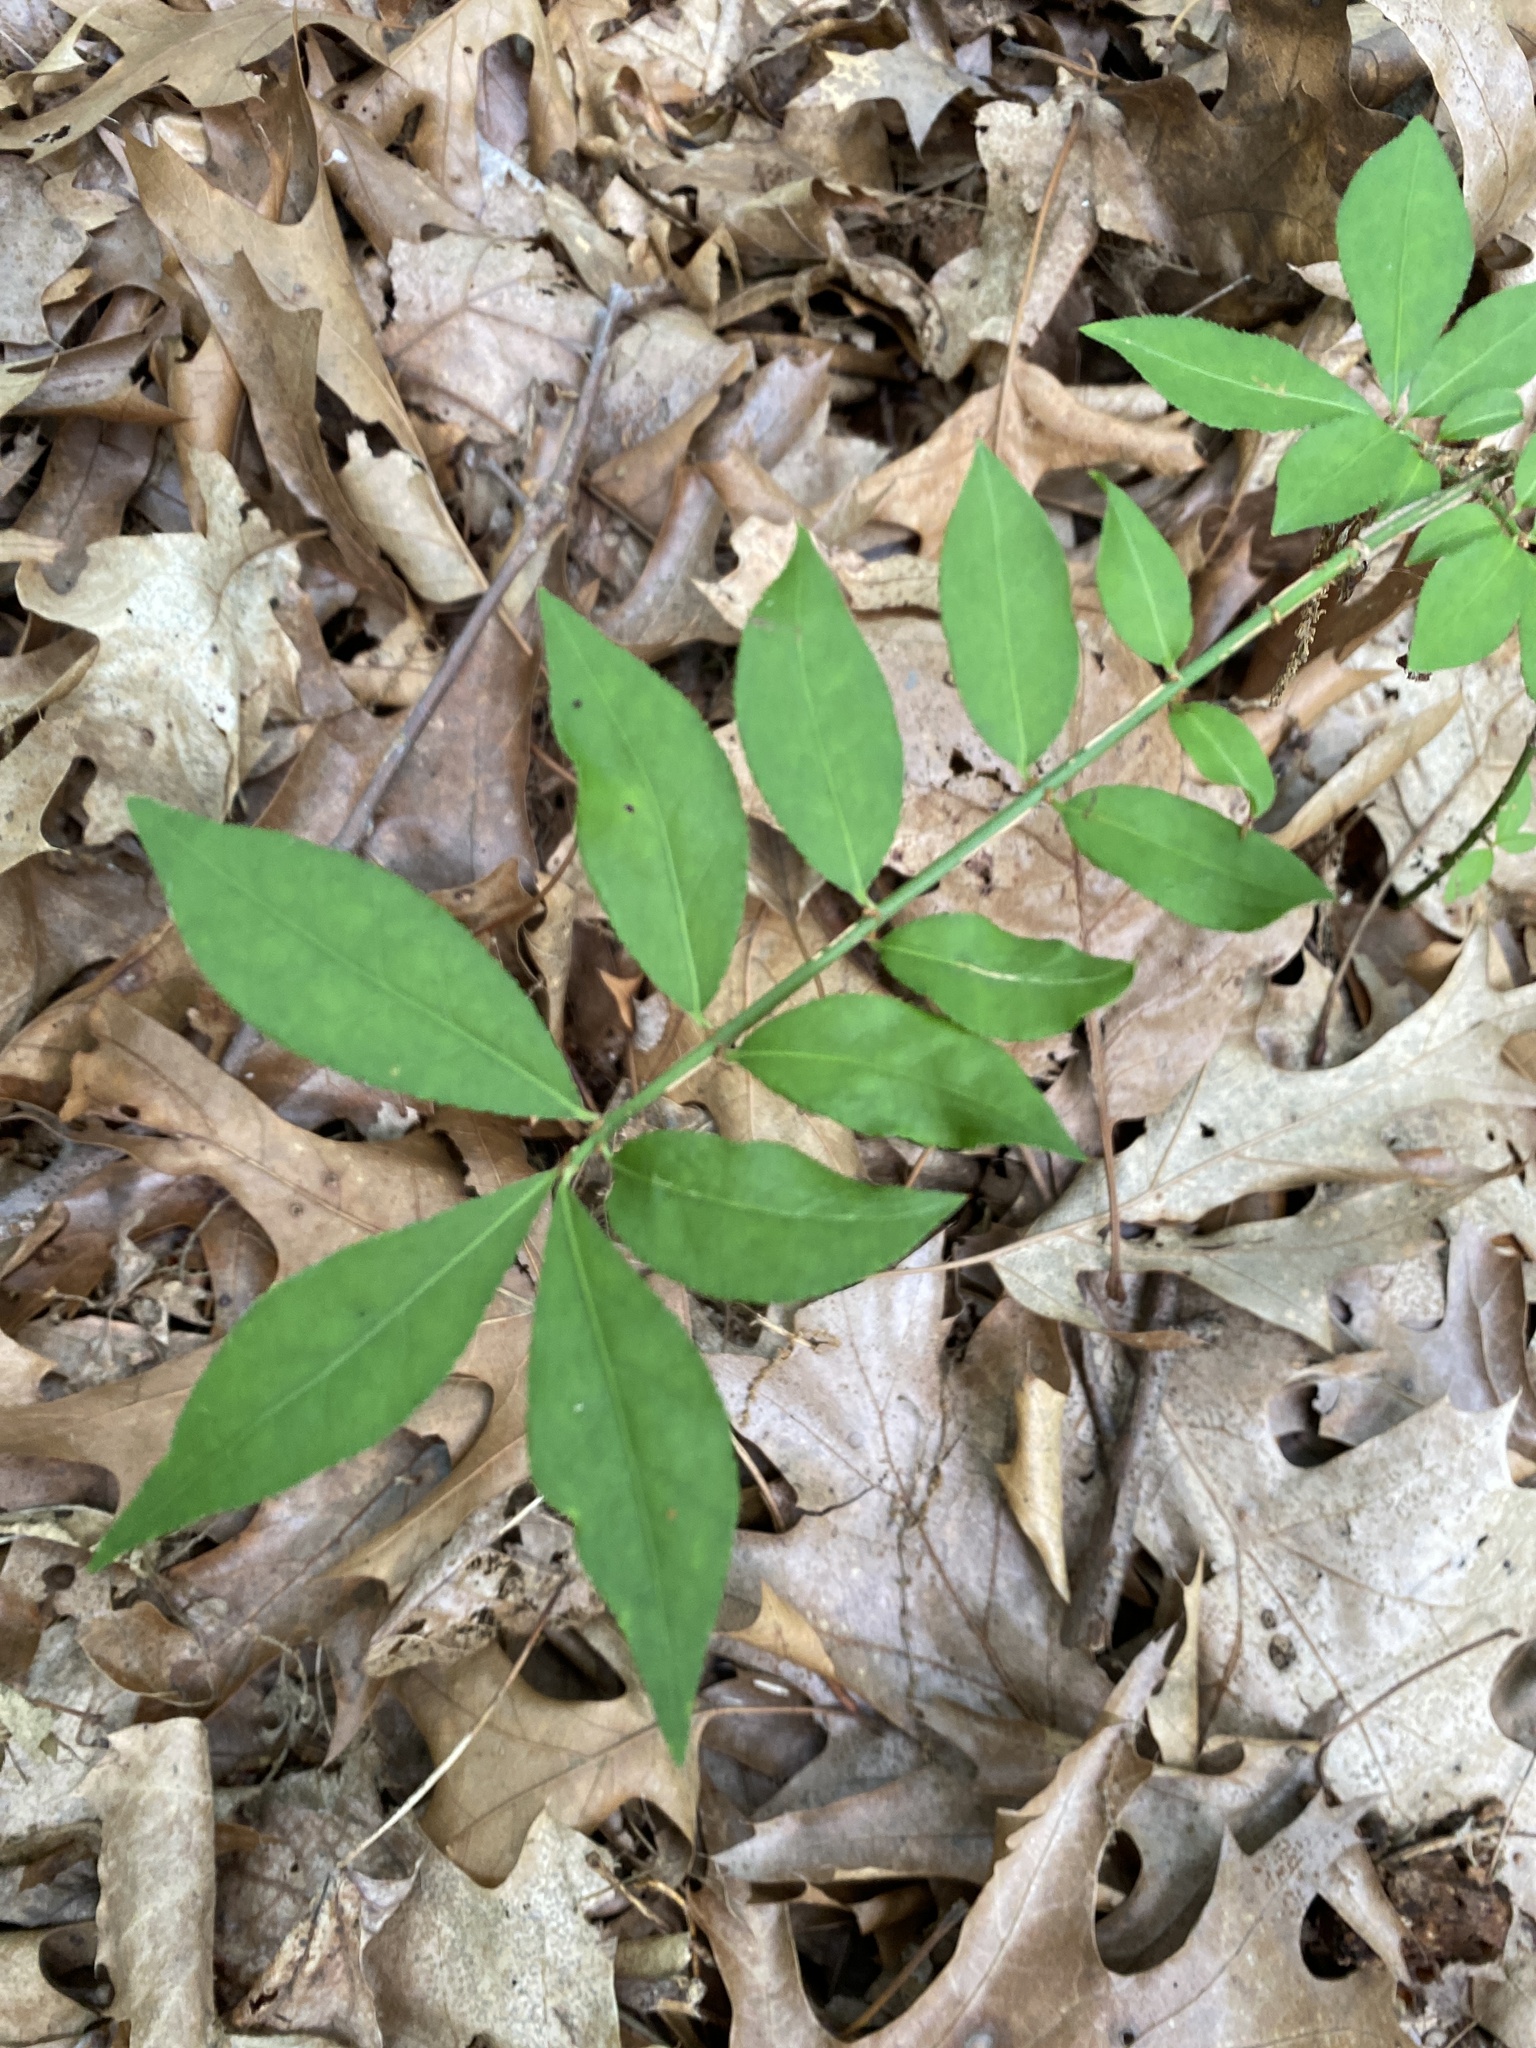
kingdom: Plantae
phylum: Tracheophyta
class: Magnoliopsida
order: Celastrales
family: Celastraceae
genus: Euonymus
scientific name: Euonymus alatus
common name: Winged euonymus
